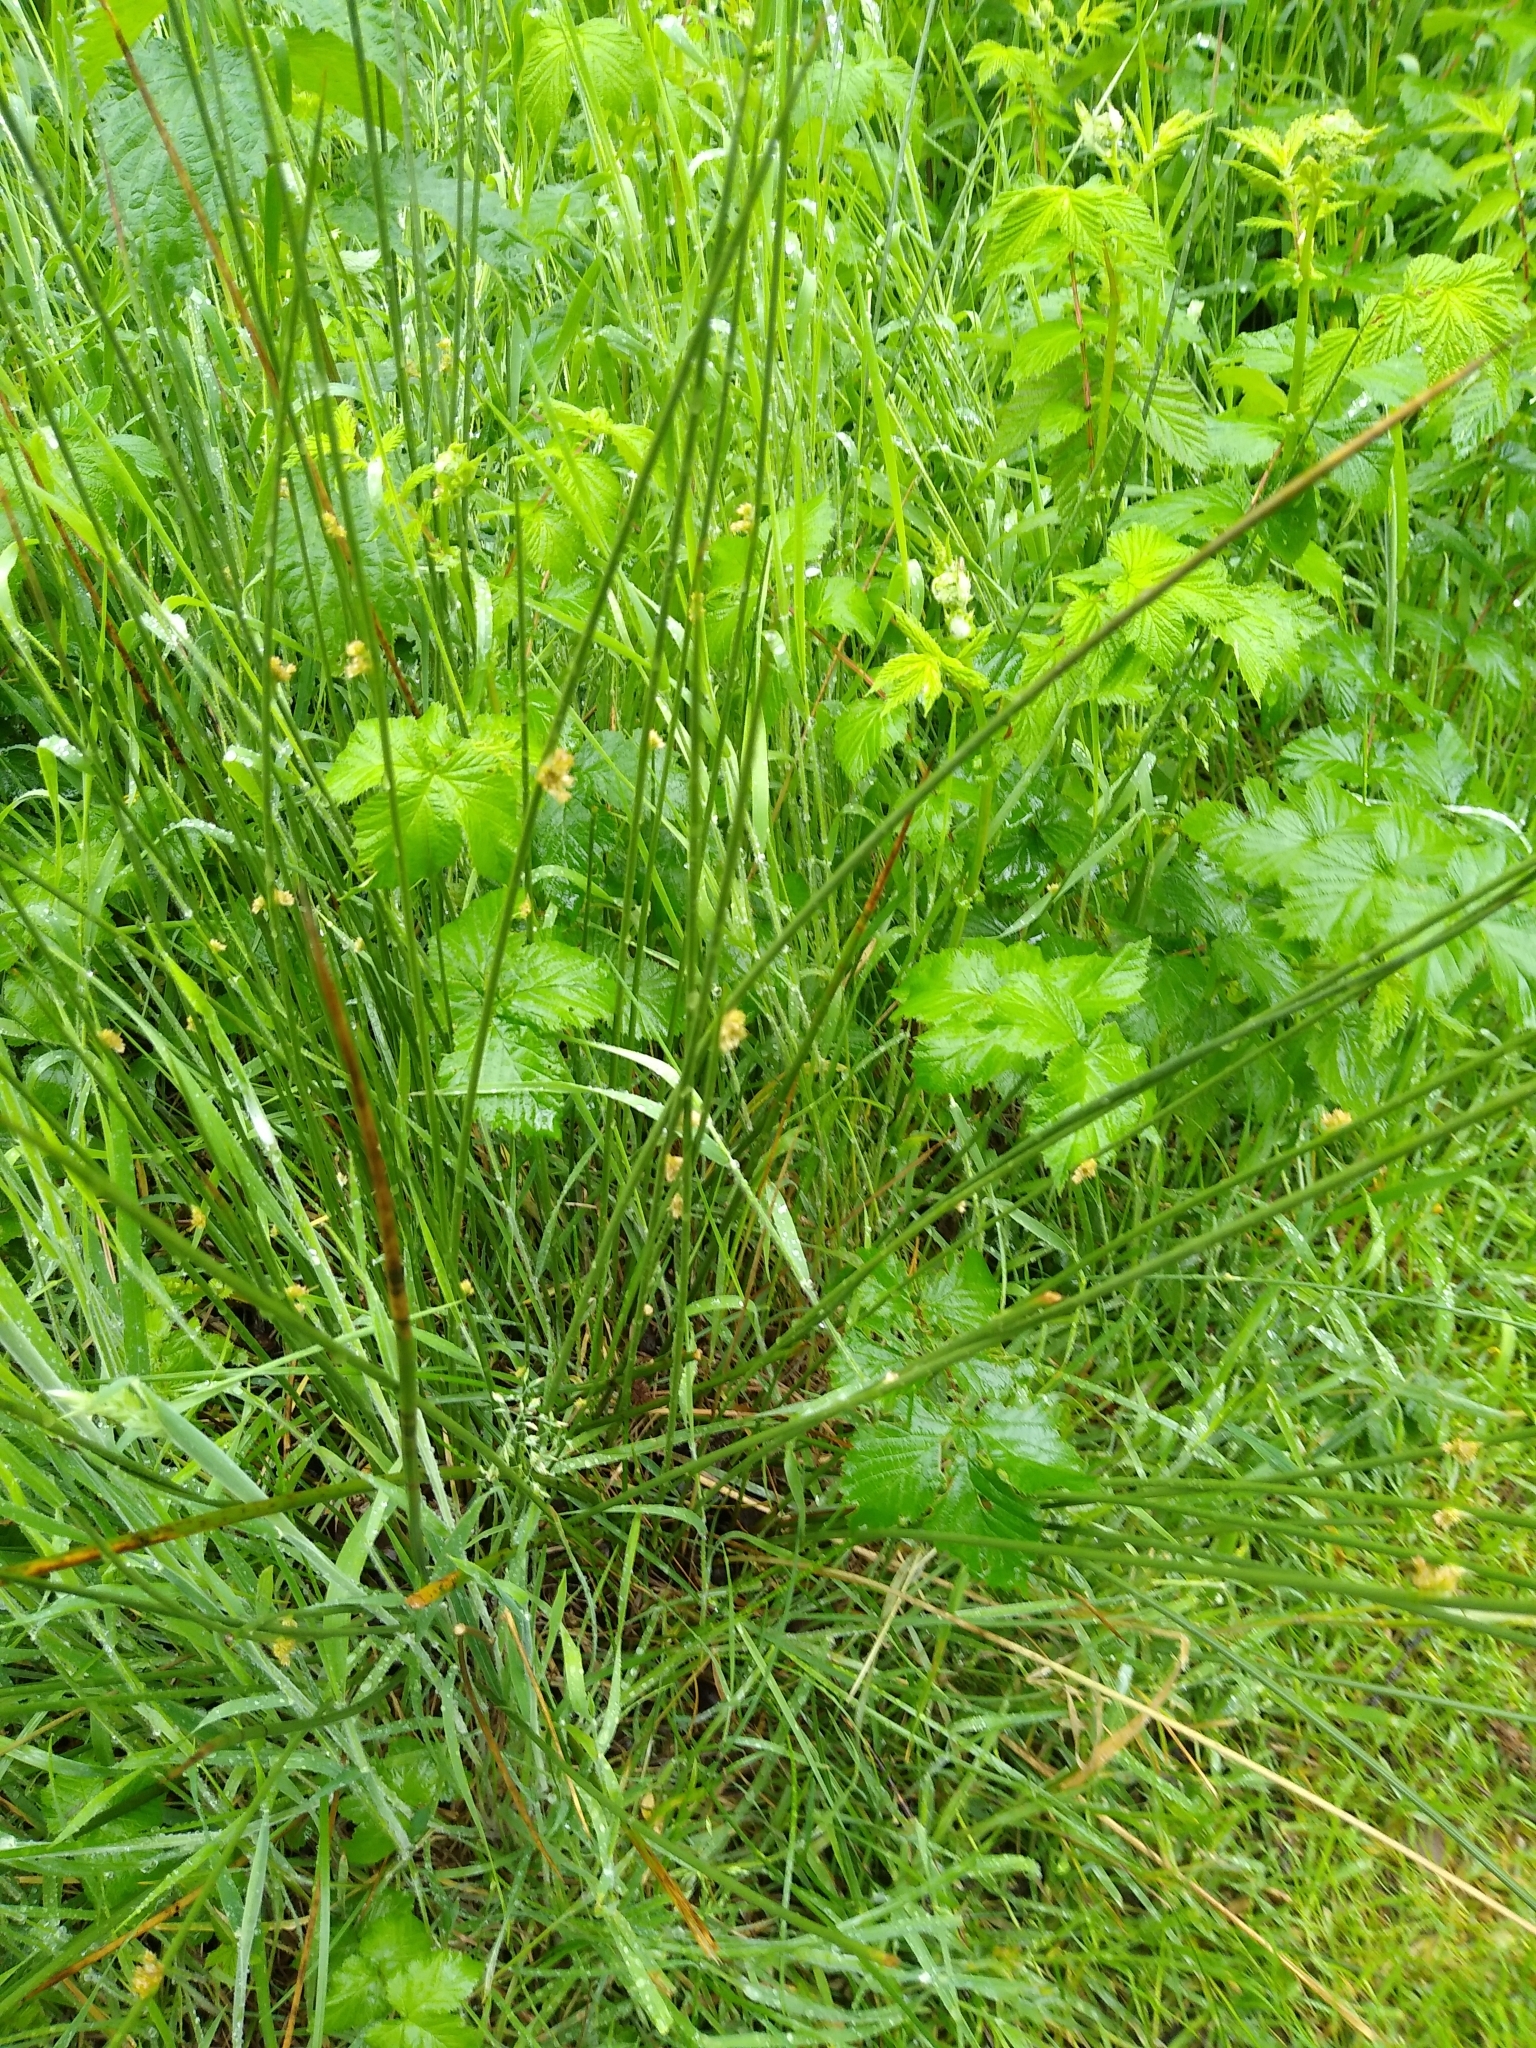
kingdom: Plantae
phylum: Tracheophyta
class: Liliopsida
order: Poales
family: Juncaceae
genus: Juncus
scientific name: Juncus effusus
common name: Soft rush
